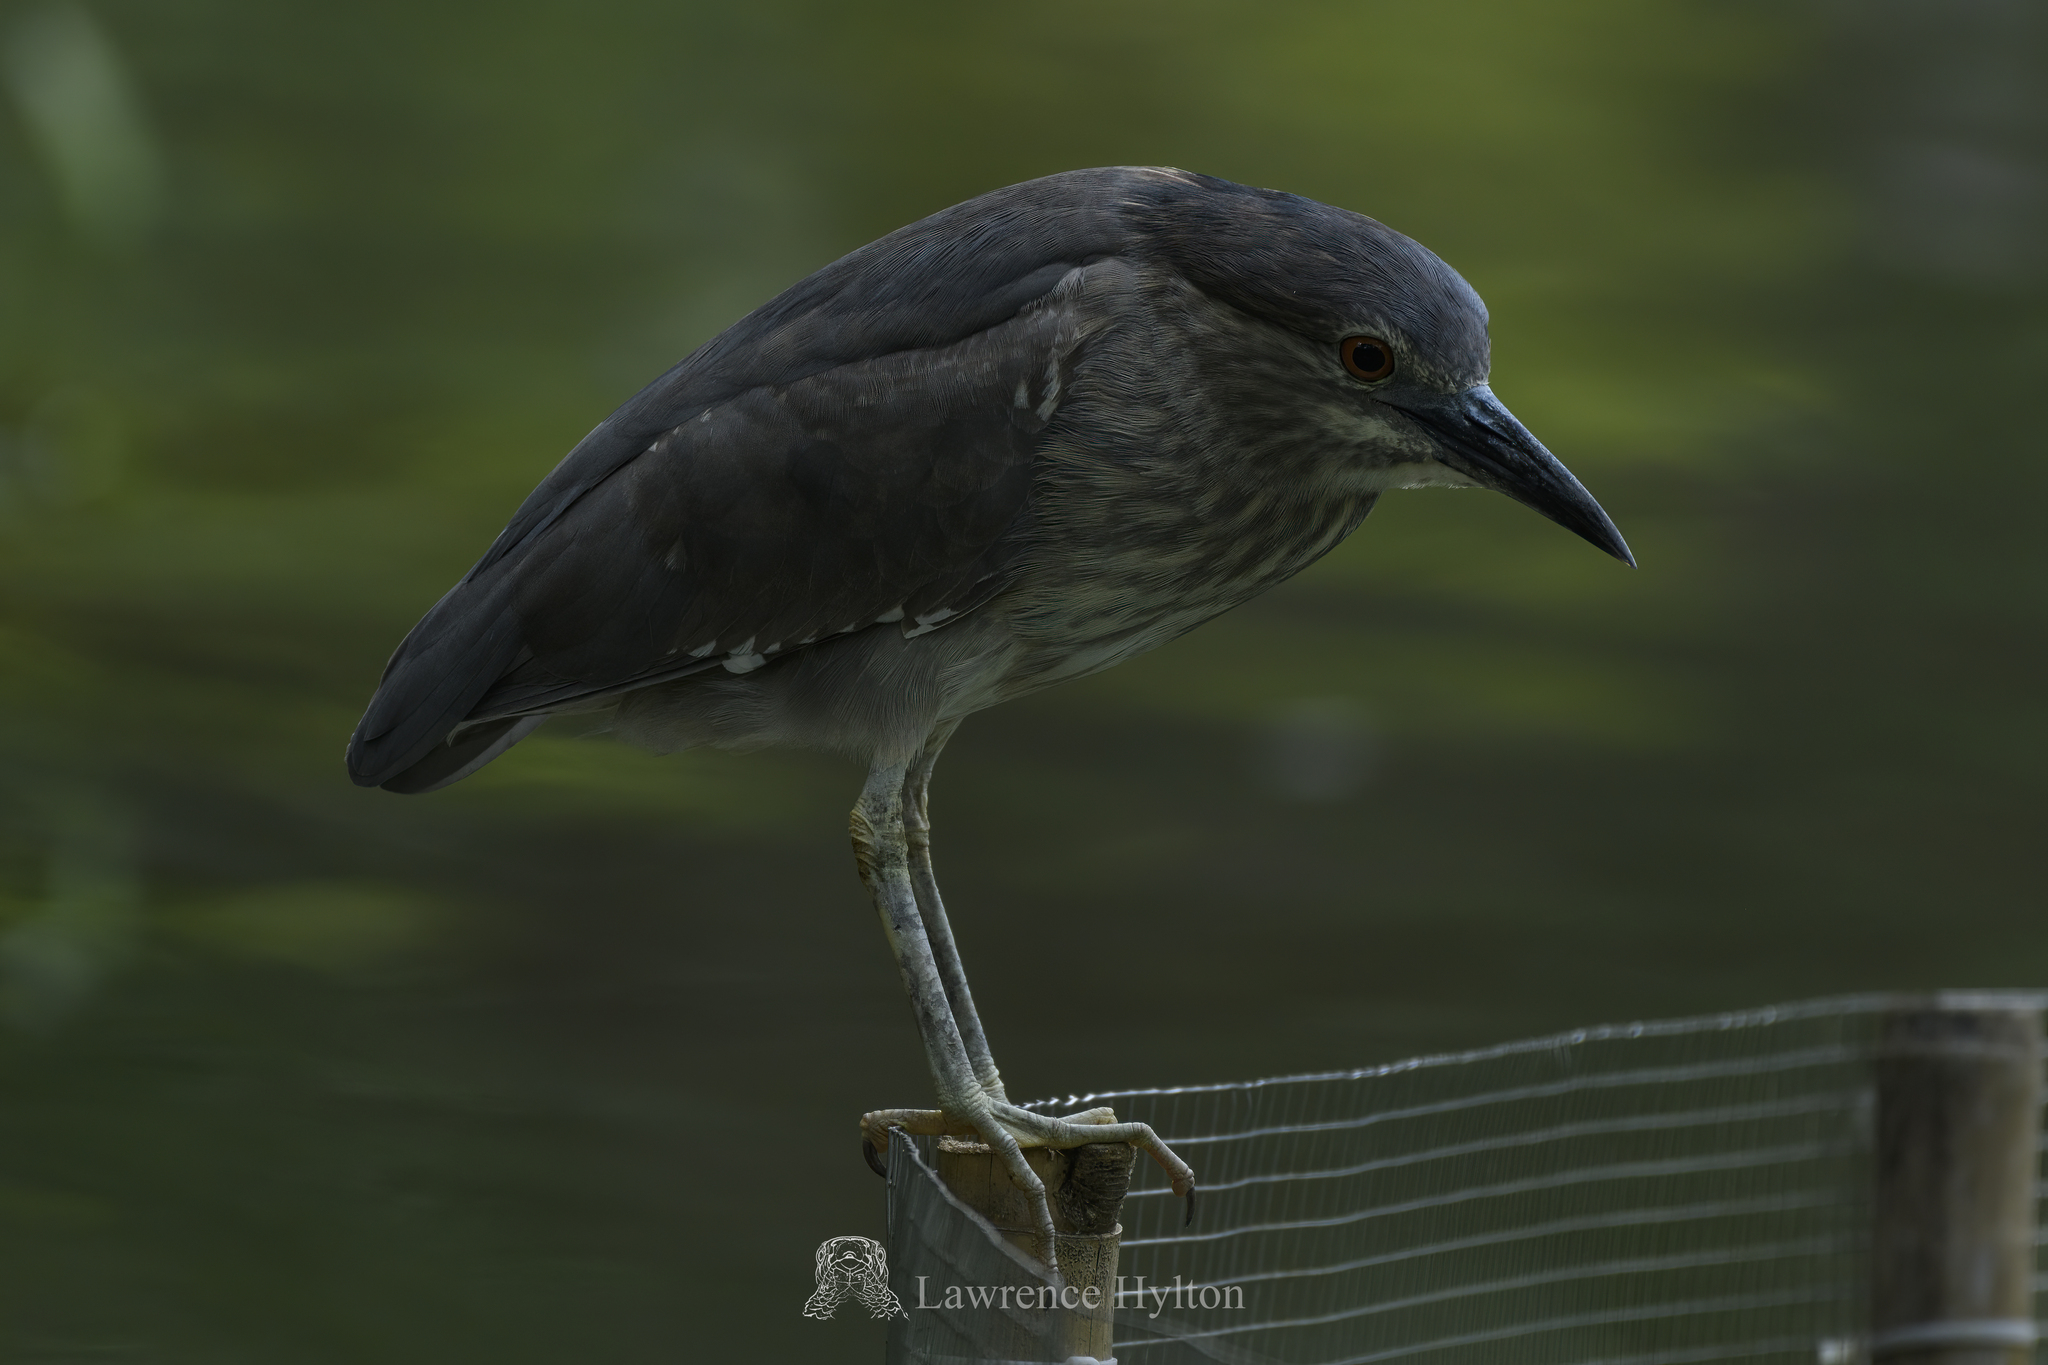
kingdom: Animalia
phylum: Chordata
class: Aves
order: Pelecaniformes
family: Ardeidae
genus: Nycticorax
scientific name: Nycticorax nycticorax
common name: Black-crowned night heron
